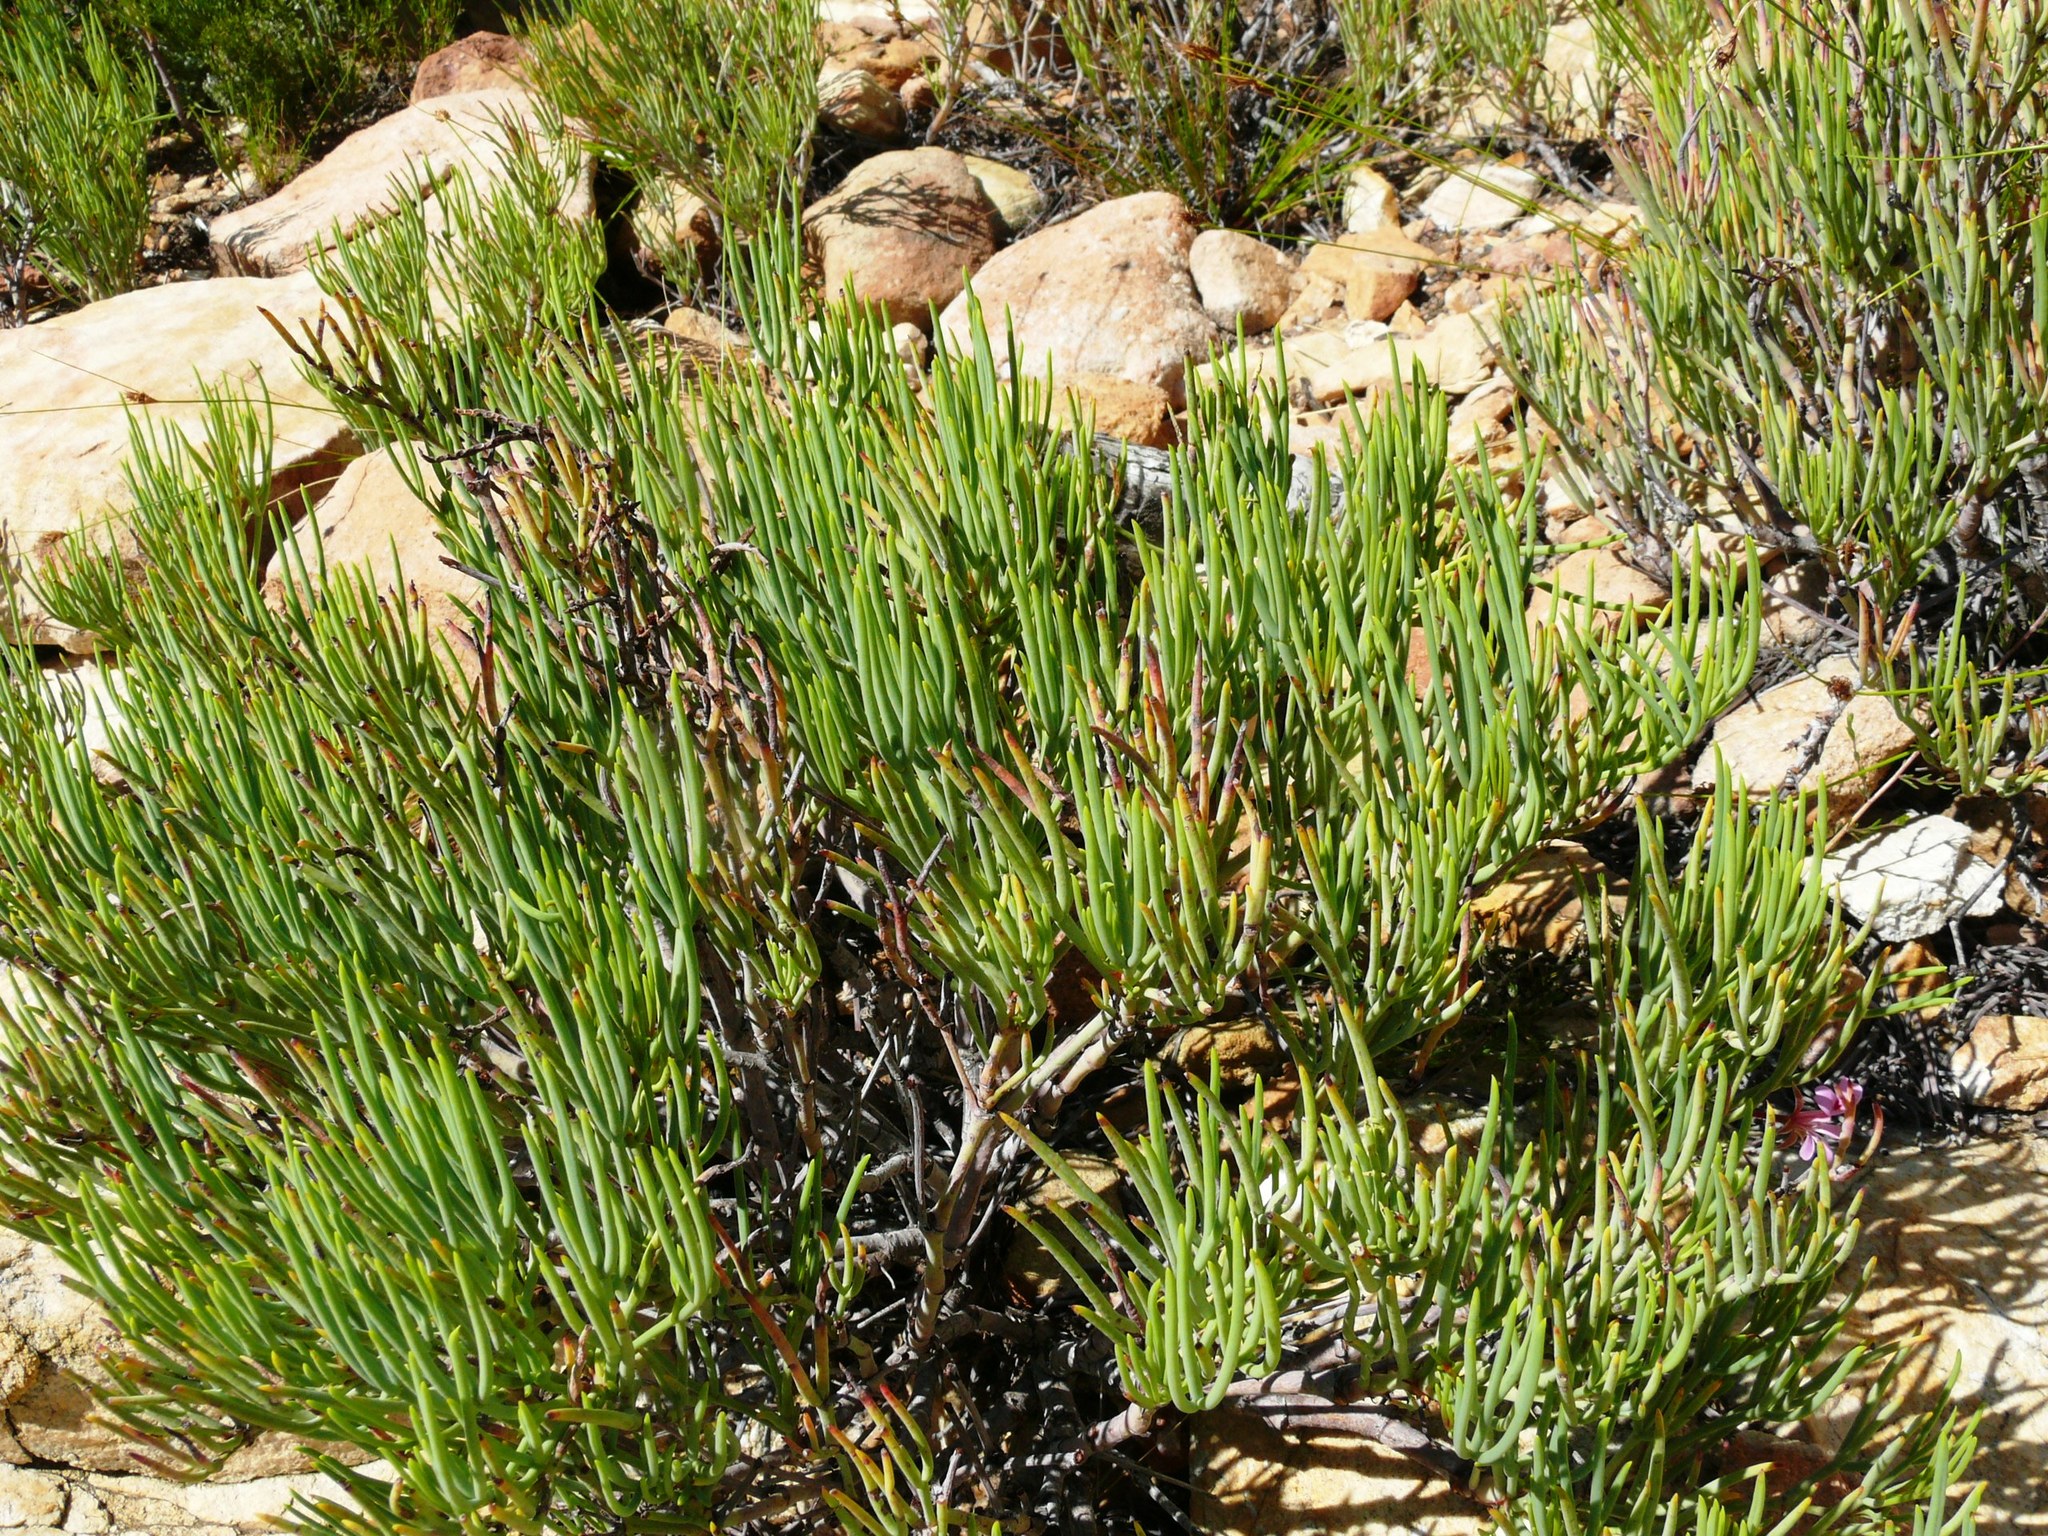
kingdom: Plantae
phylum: Tracheophyta
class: Magnoliopsida
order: Geraniales
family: Geraniaceae
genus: Pelargonium
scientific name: Pelargonium laevigatum
